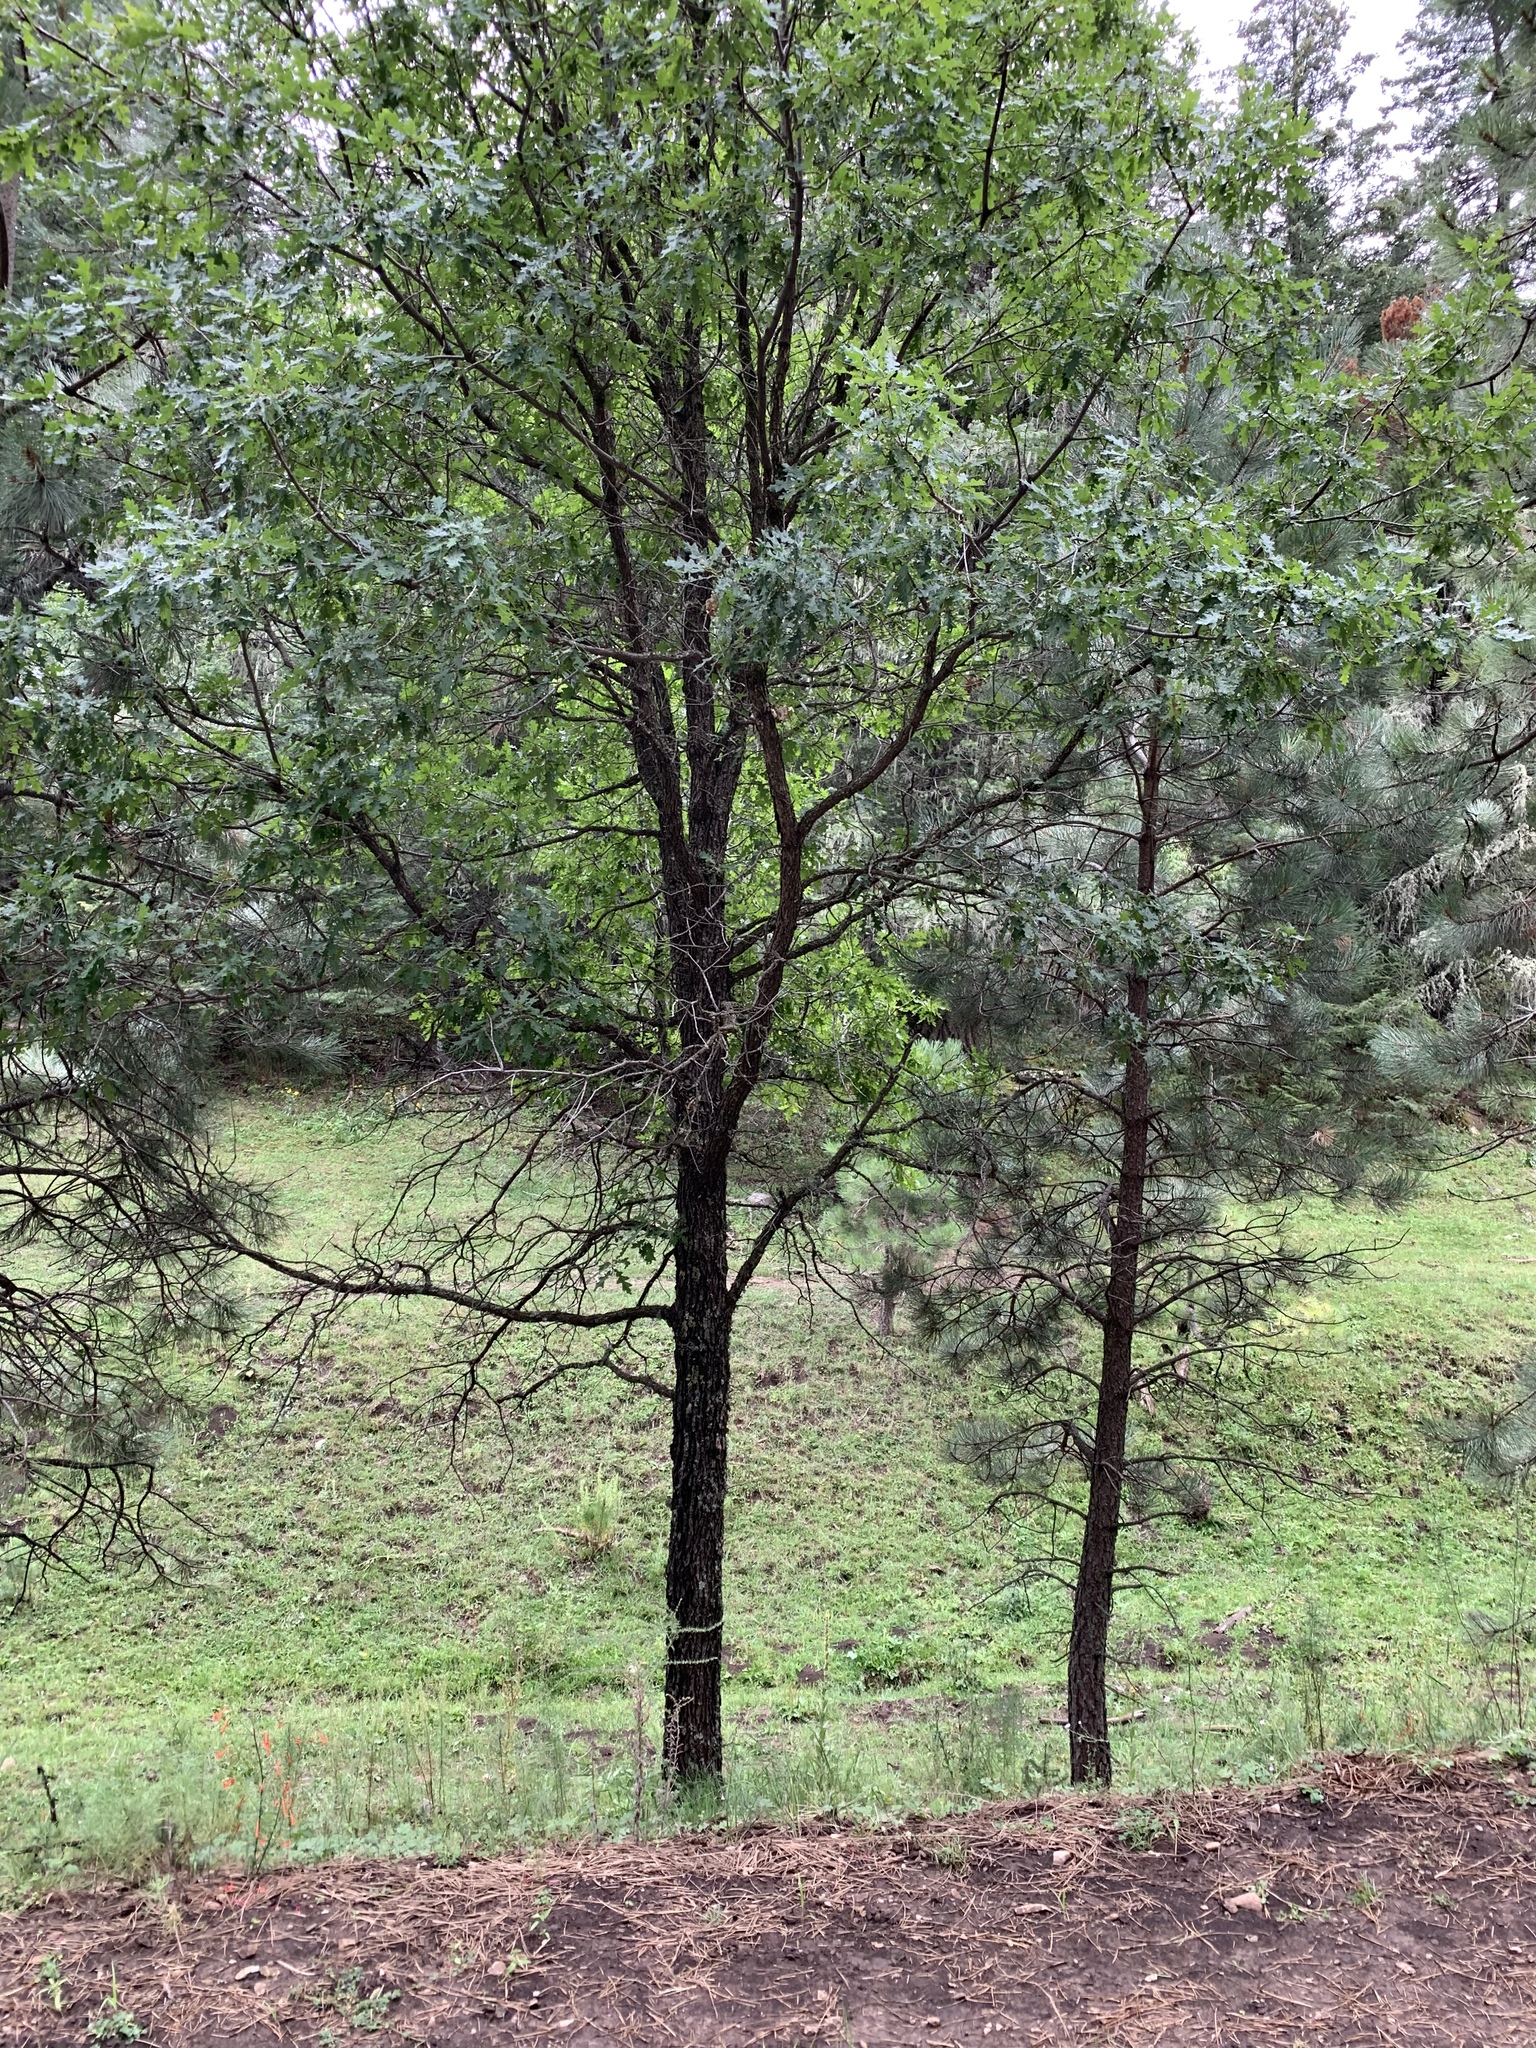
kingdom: Plantae
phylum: Tracheophyta
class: Magnoliopsida
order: Fagales
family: Fagaceae
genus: Quercus
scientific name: Quercus gambelii
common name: Gambel oak
